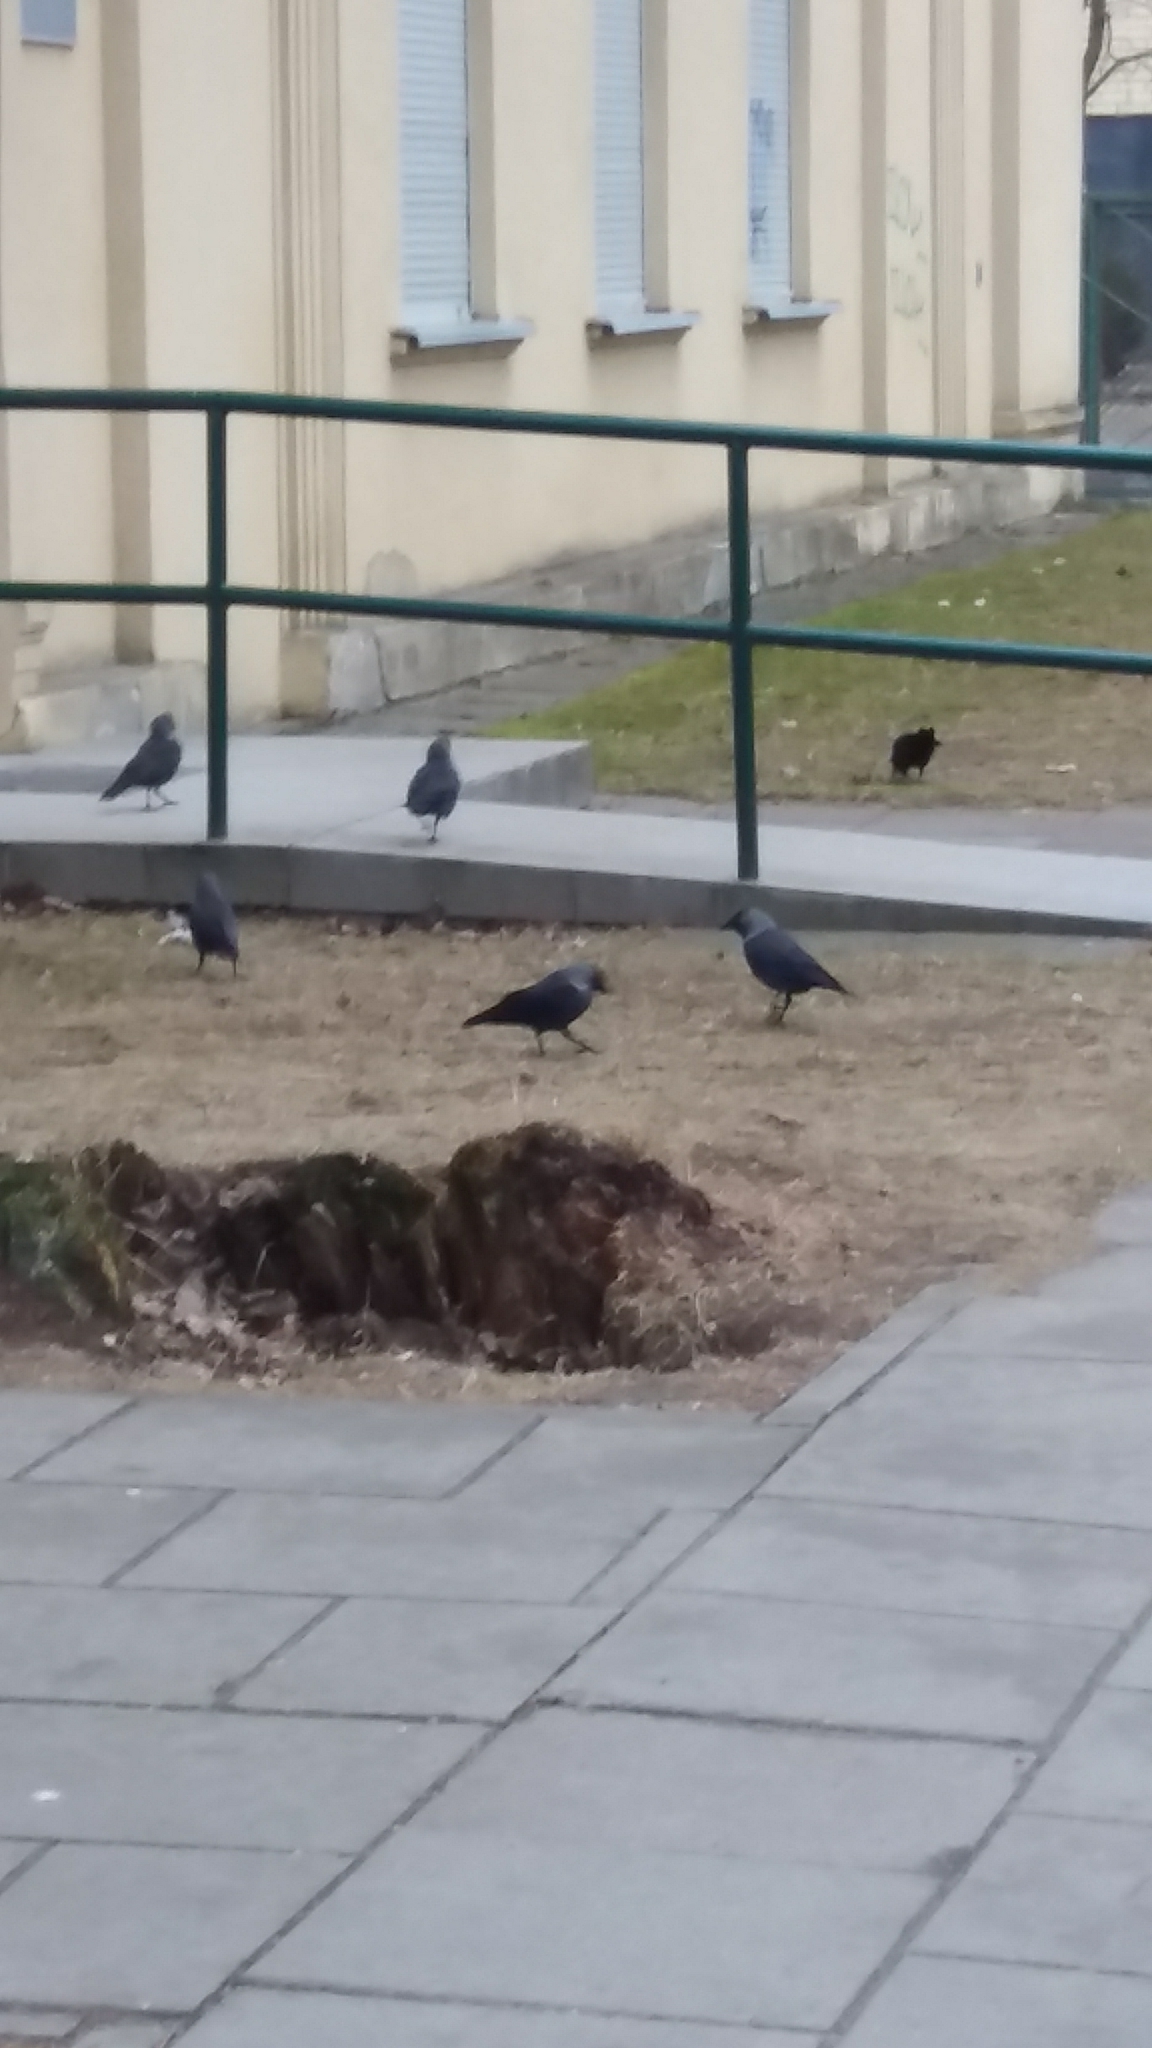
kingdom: Animalia
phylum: Chordata
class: Aves
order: Passeriformes
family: Corvidae
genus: Coloeus
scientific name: Coloeus monedula
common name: Western jackdaw
